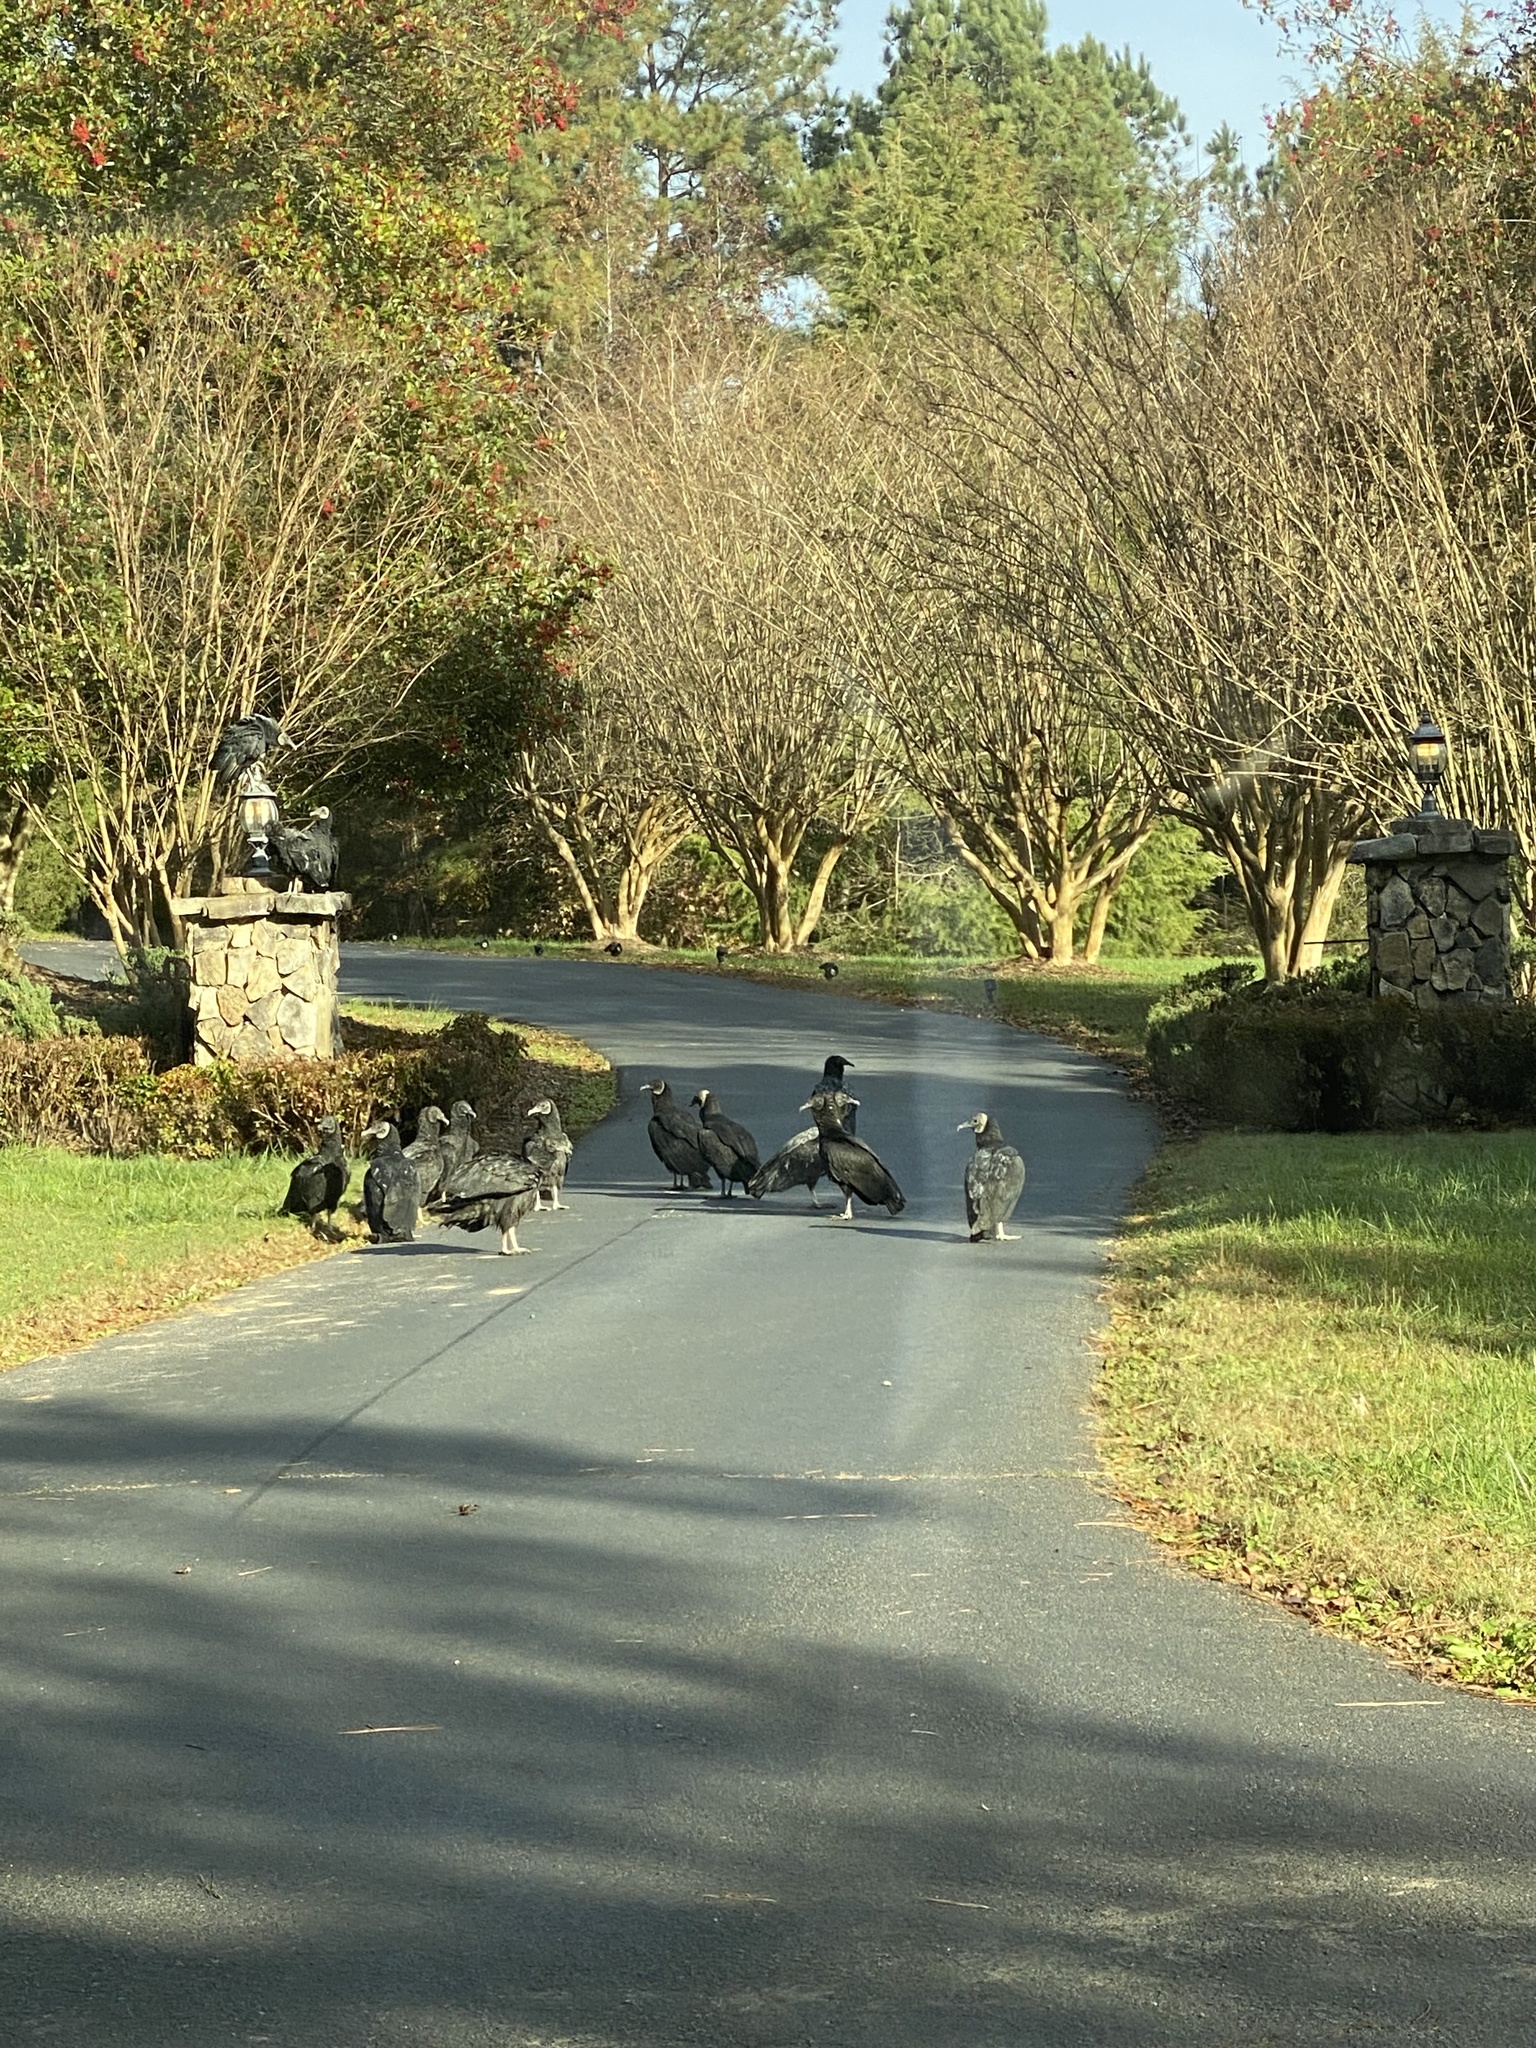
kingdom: Animalia
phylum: Chordata
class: Aves
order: Accipitriformes
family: Cathartidae
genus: Coragyps
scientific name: Coragyps atratus
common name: Black vulture
